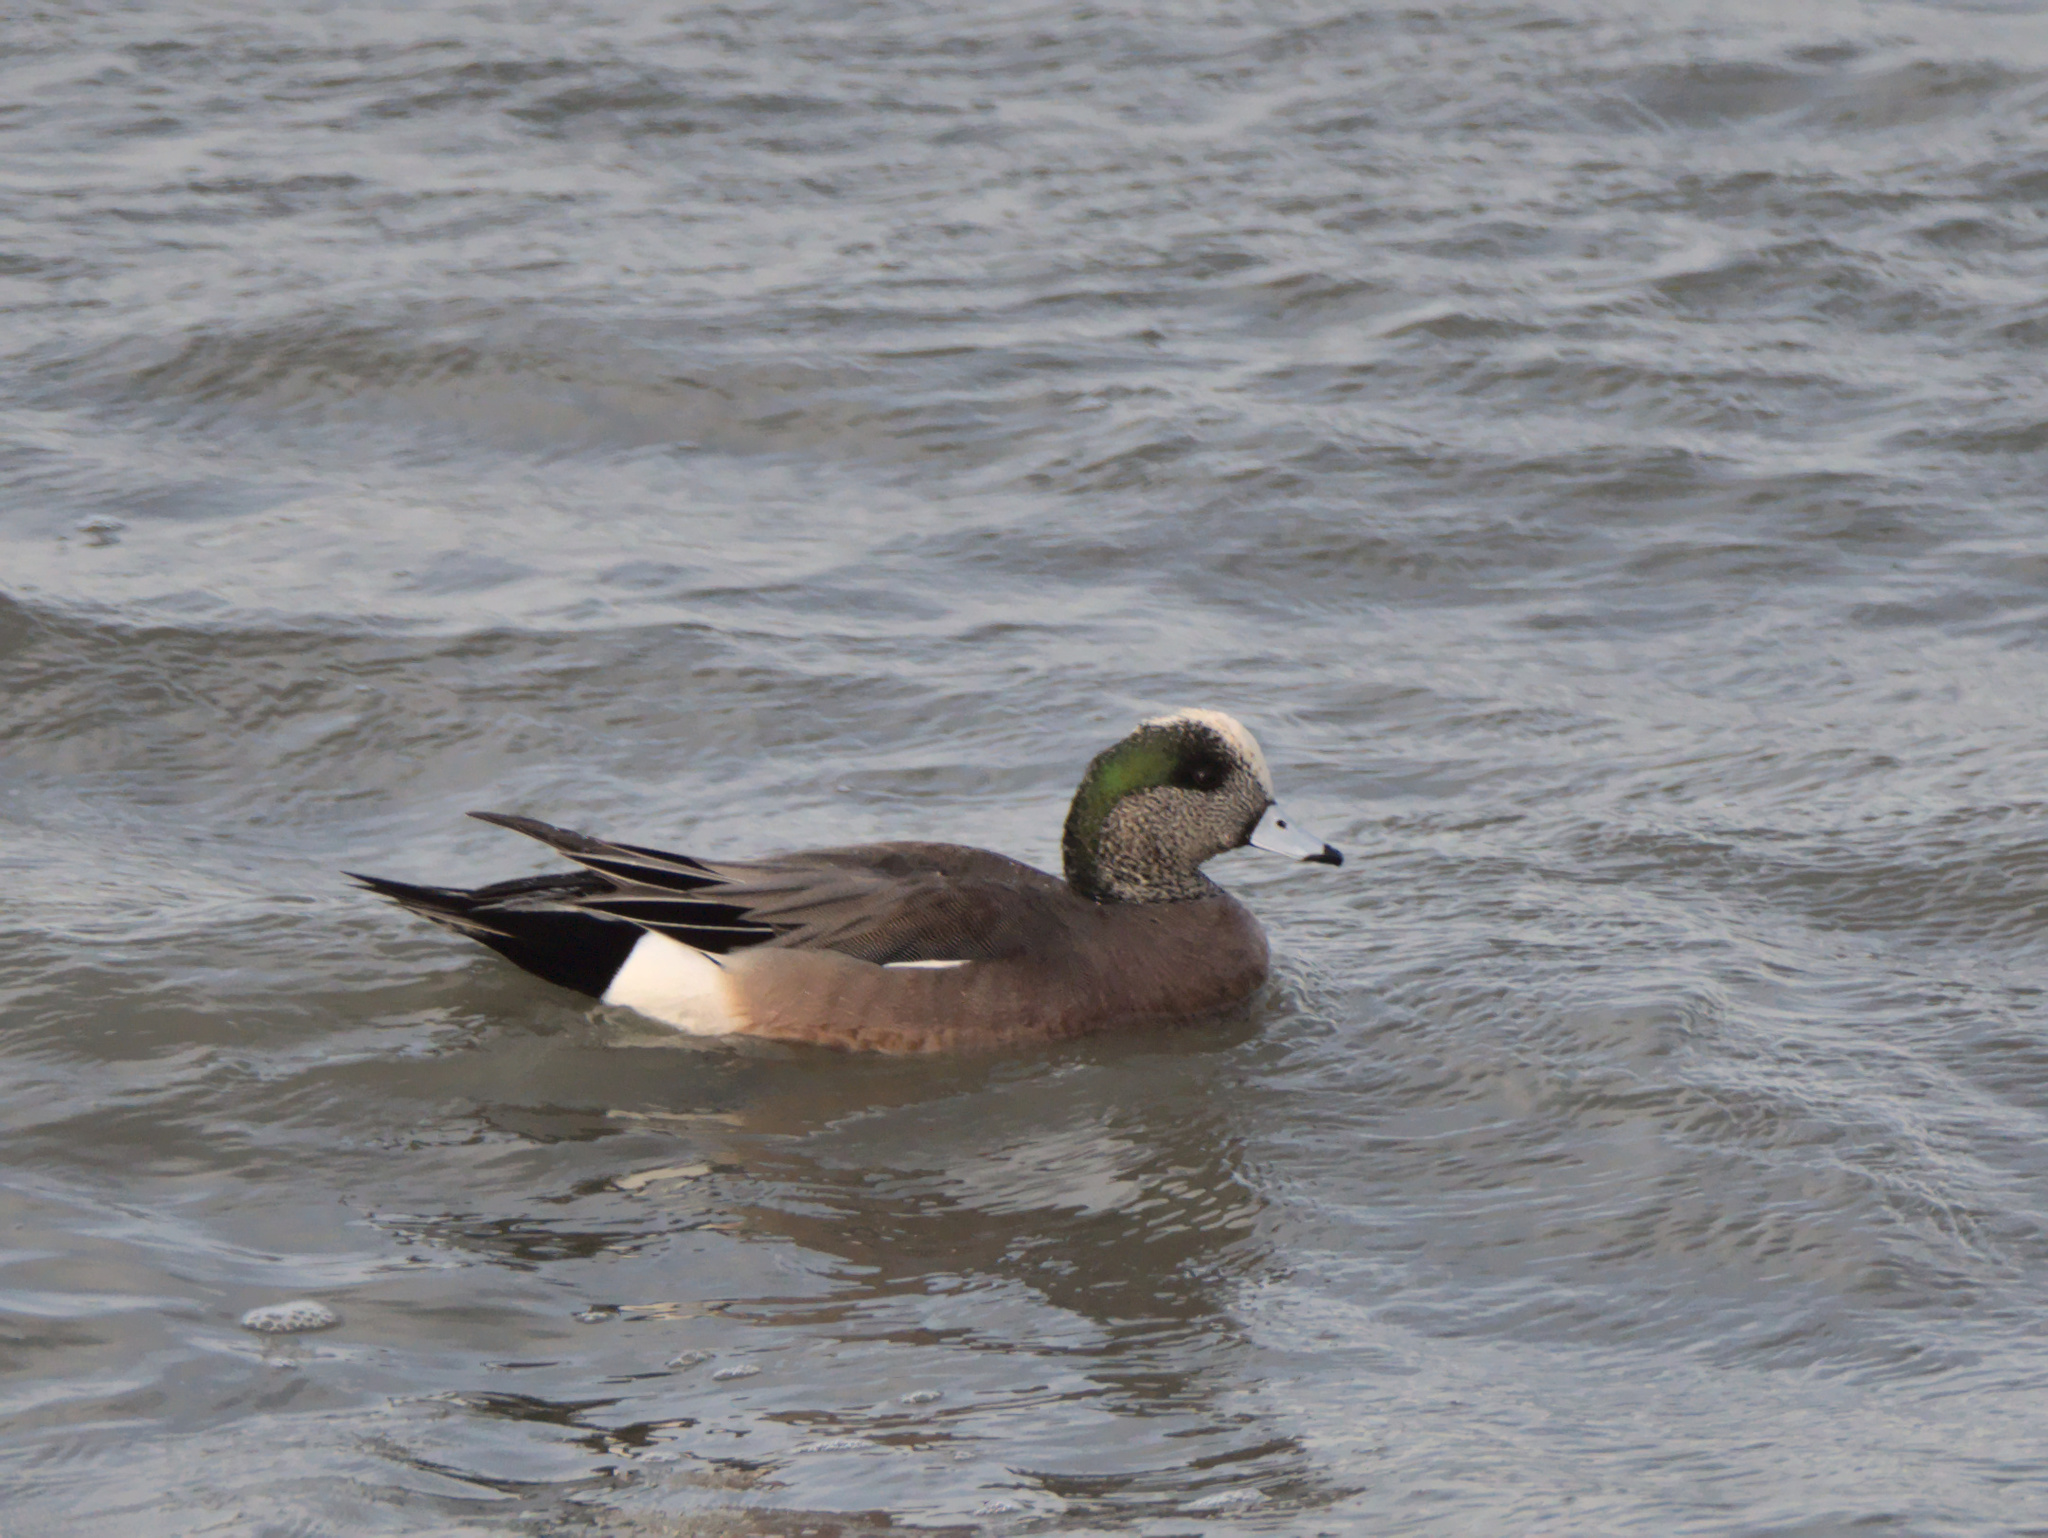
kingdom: Animalia
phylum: Chordata
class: Aves
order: Anseriformes
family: Anatidae
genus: Mareca
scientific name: Mareca americana
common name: American wigeon
